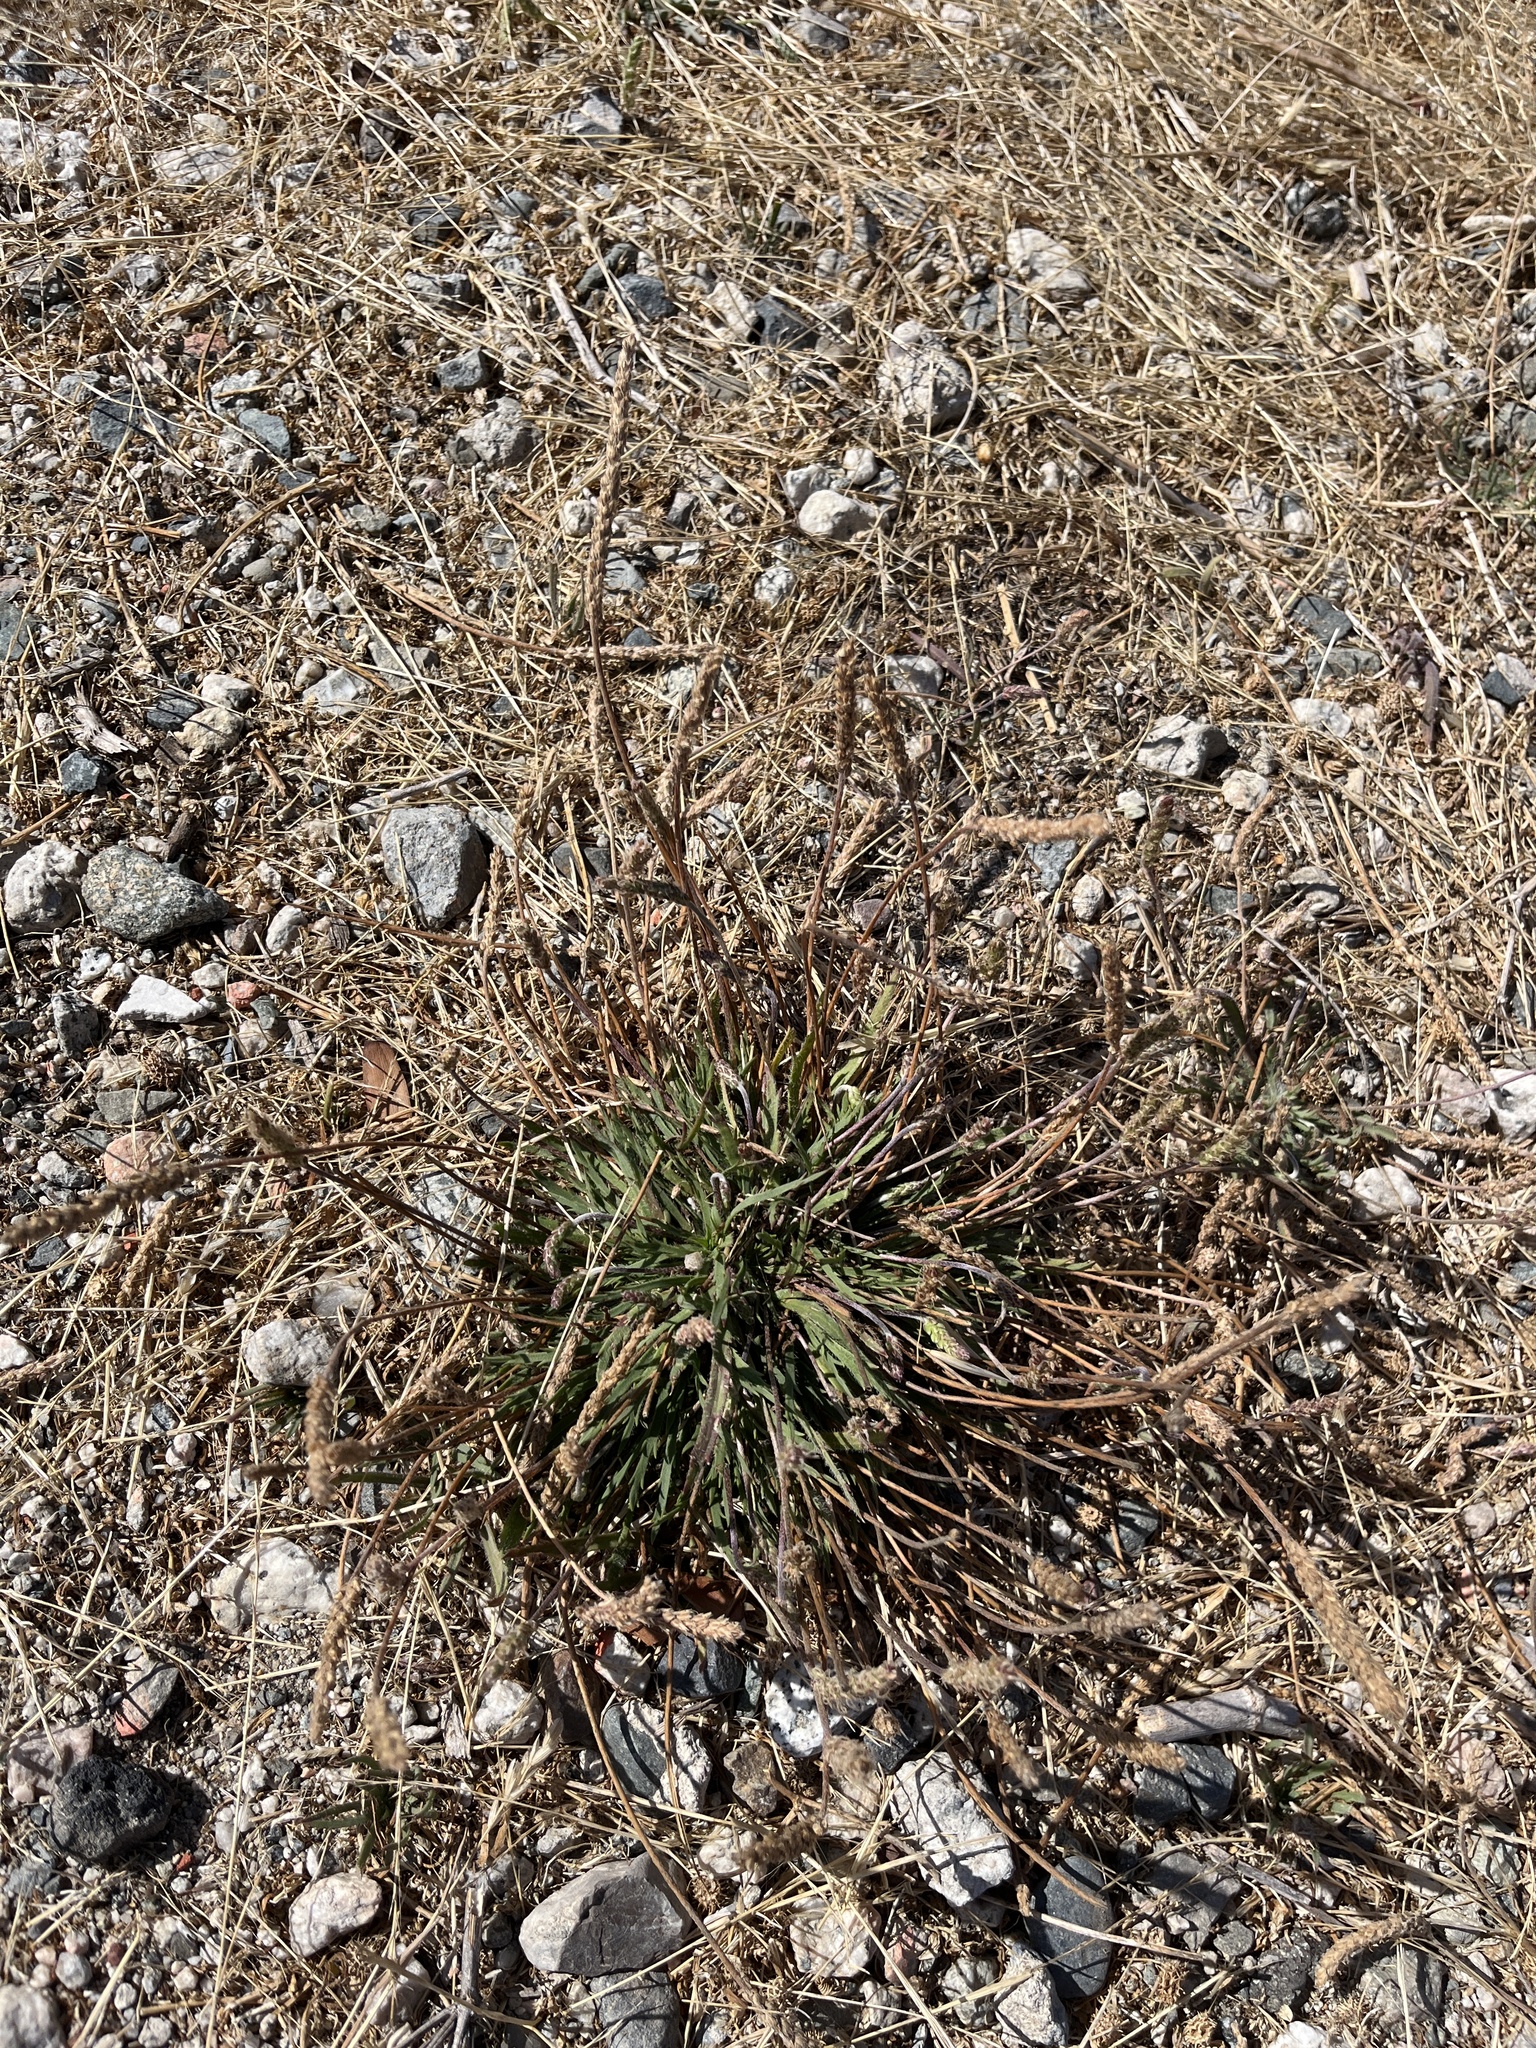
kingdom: Plantae
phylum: Tracheophyta
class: Magnoliopsida
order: Lamiales
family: Plantaginaceae
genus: Plantago
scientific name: Plantago coronopus
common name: Buck's-horn plantain
